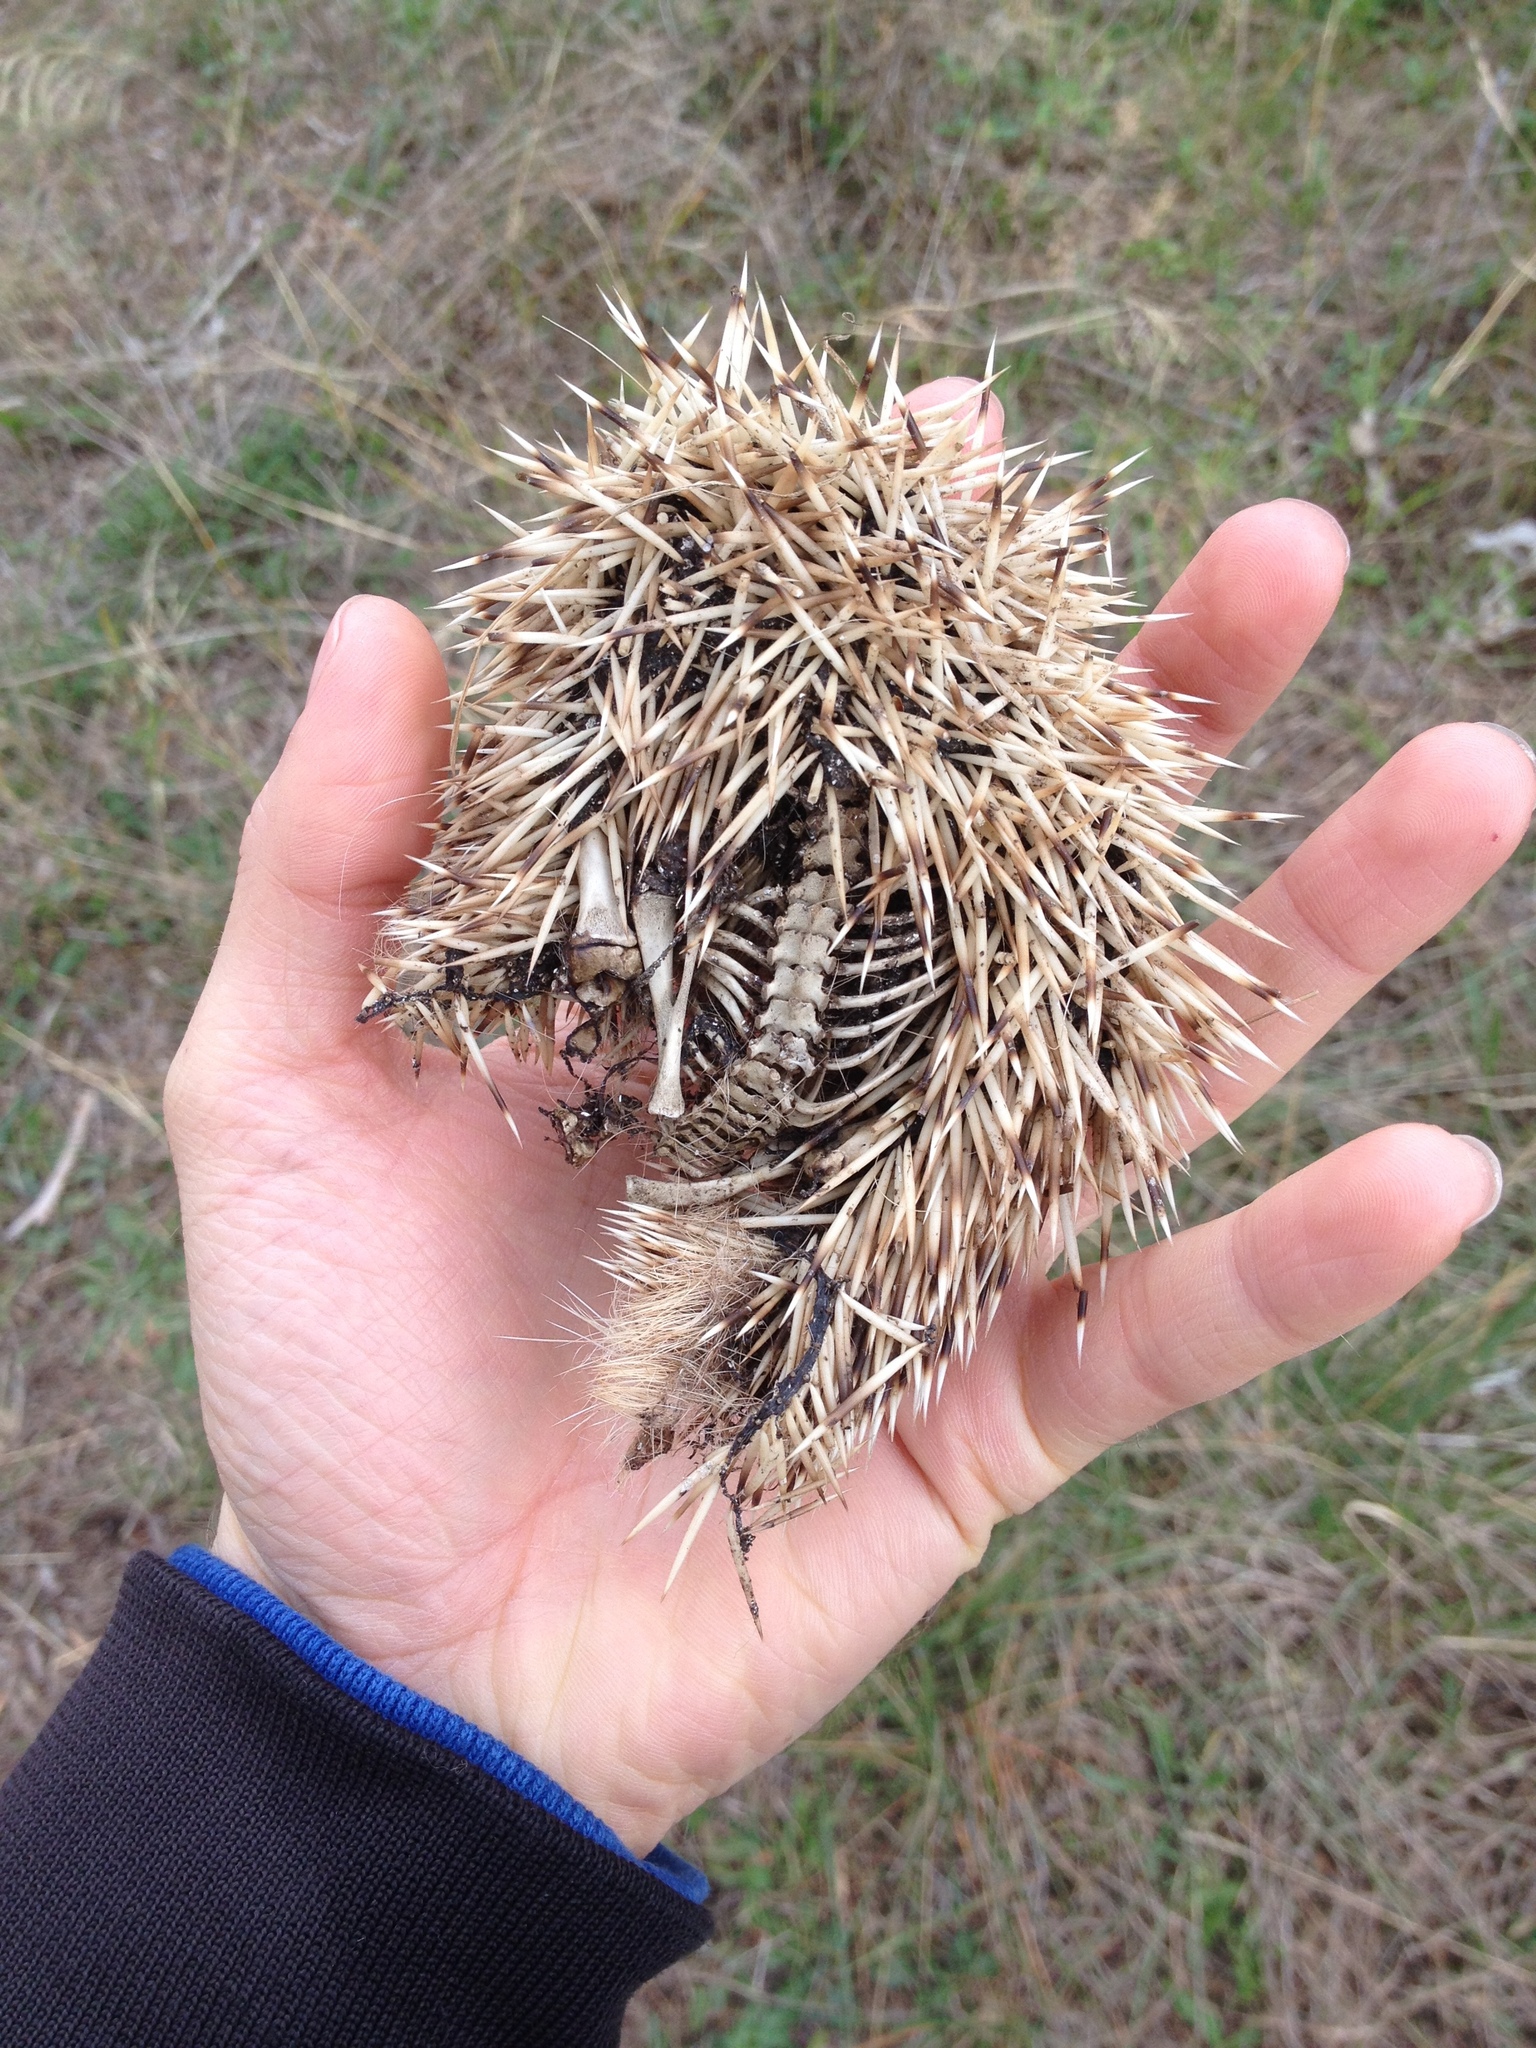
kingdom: Animalia
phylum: Chordata
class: Mammalia
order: Erinaceomorpha
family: Erinaceidae
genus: Erinaceus
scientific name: Erinaceus europaeus
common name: West european hedgehog
